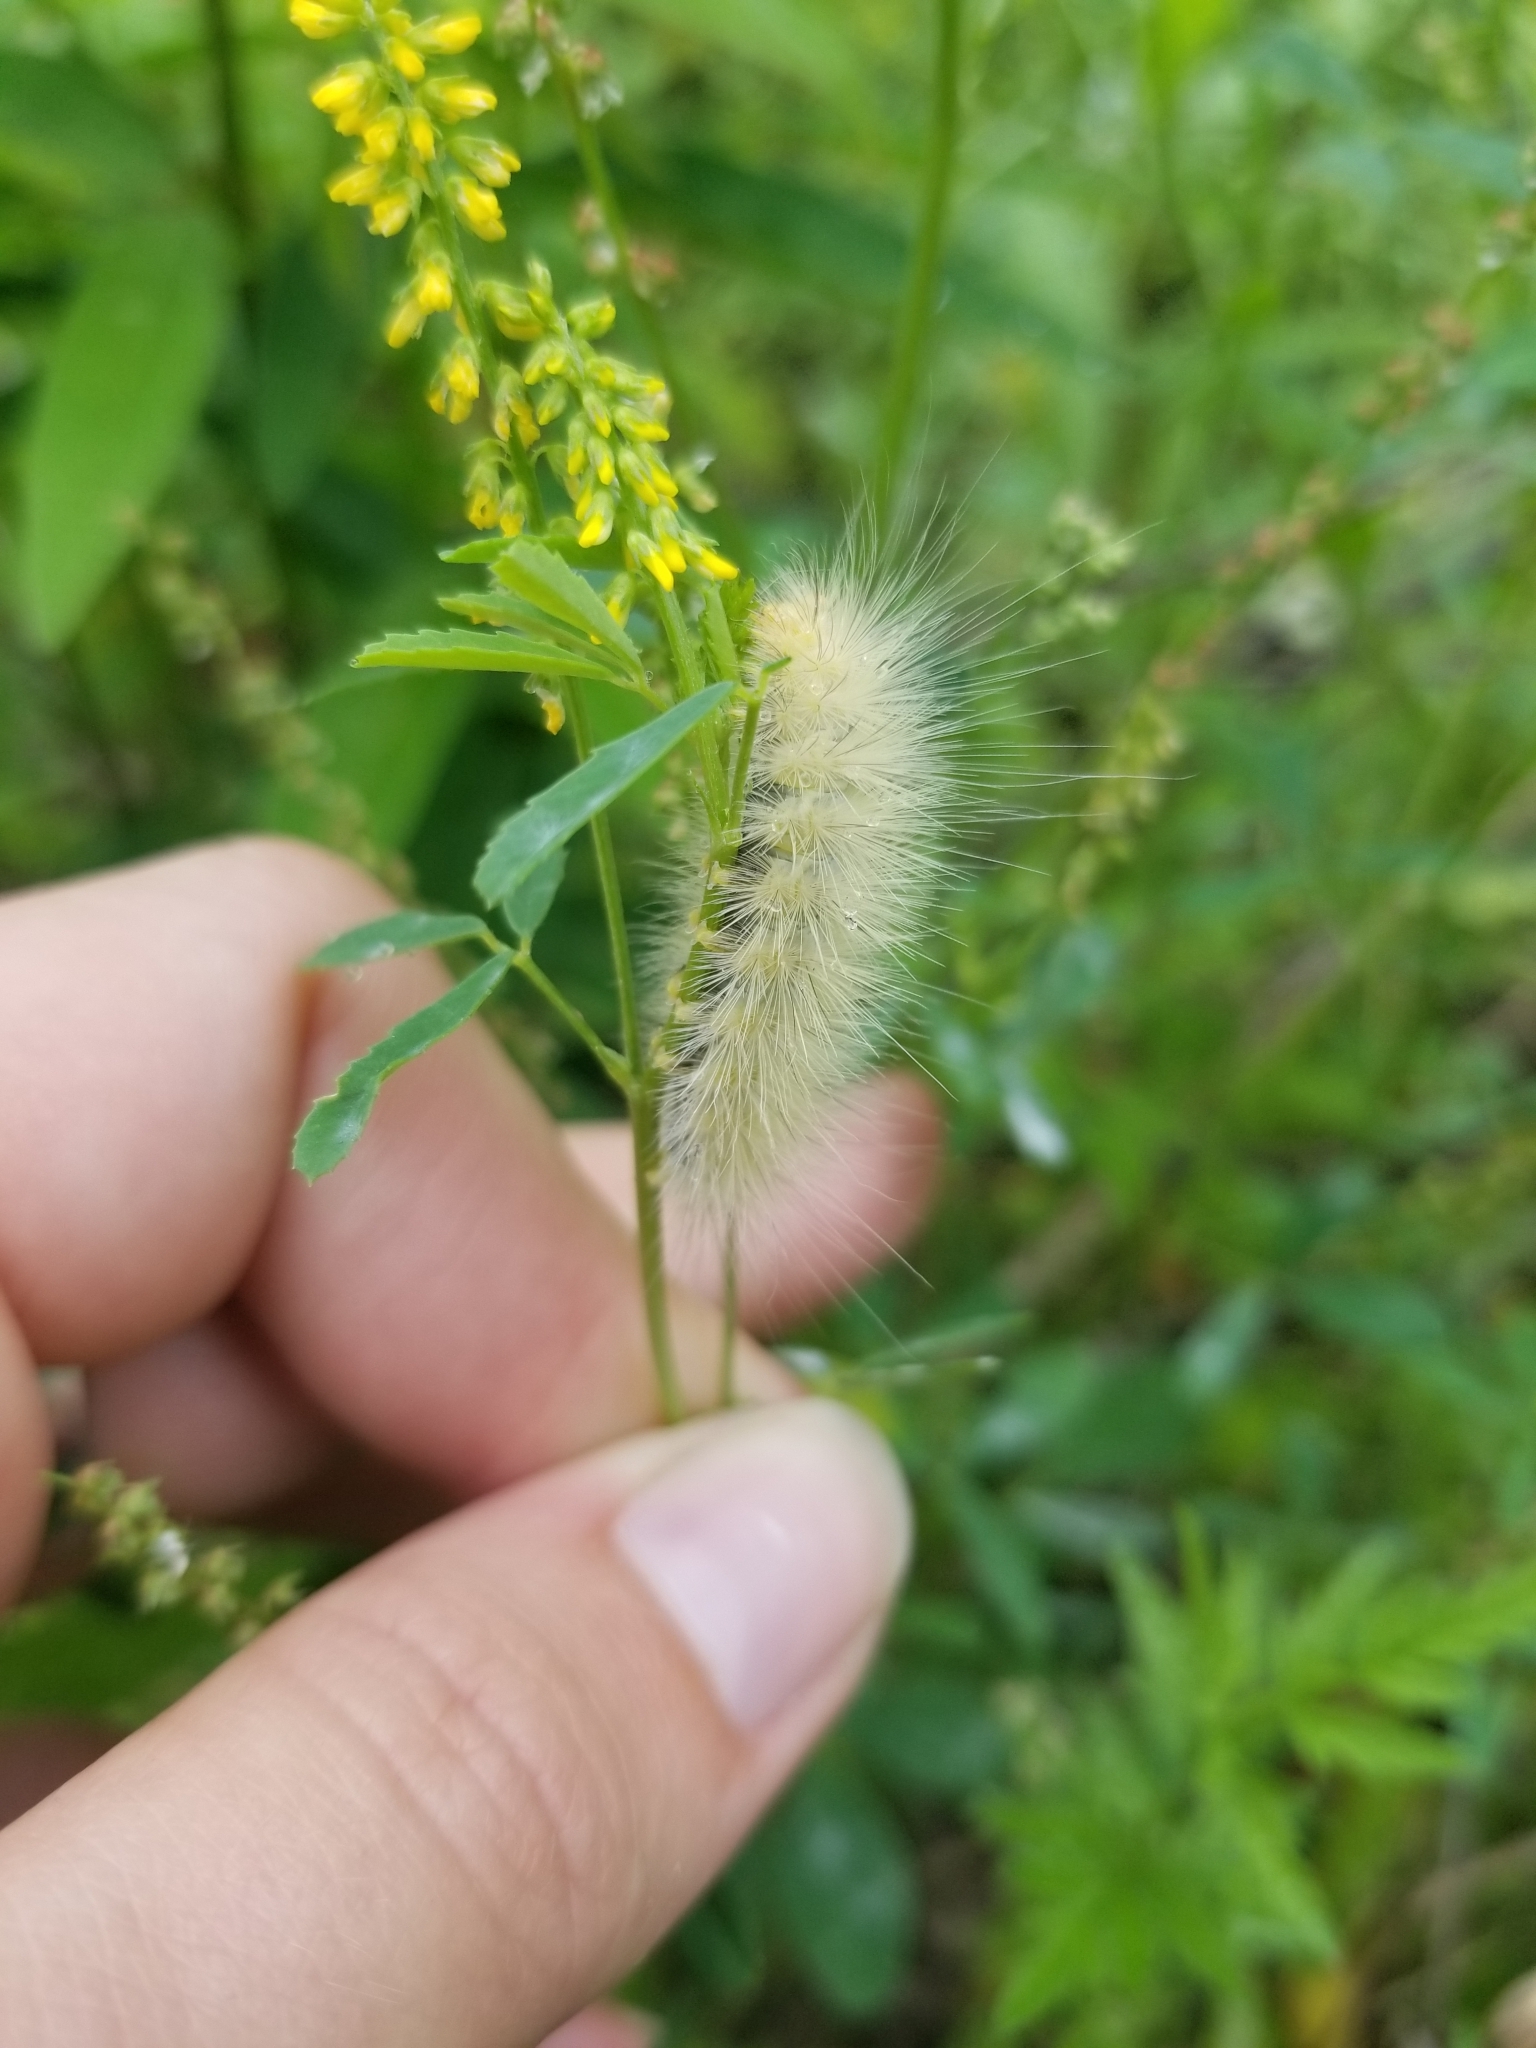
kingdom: Animalia
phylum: Arthropoda
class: Insecta
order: Lepidoptera
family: Erebidae
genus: Spilosoma
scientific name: Spilosoma virginica
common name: Virginia tiger moth
